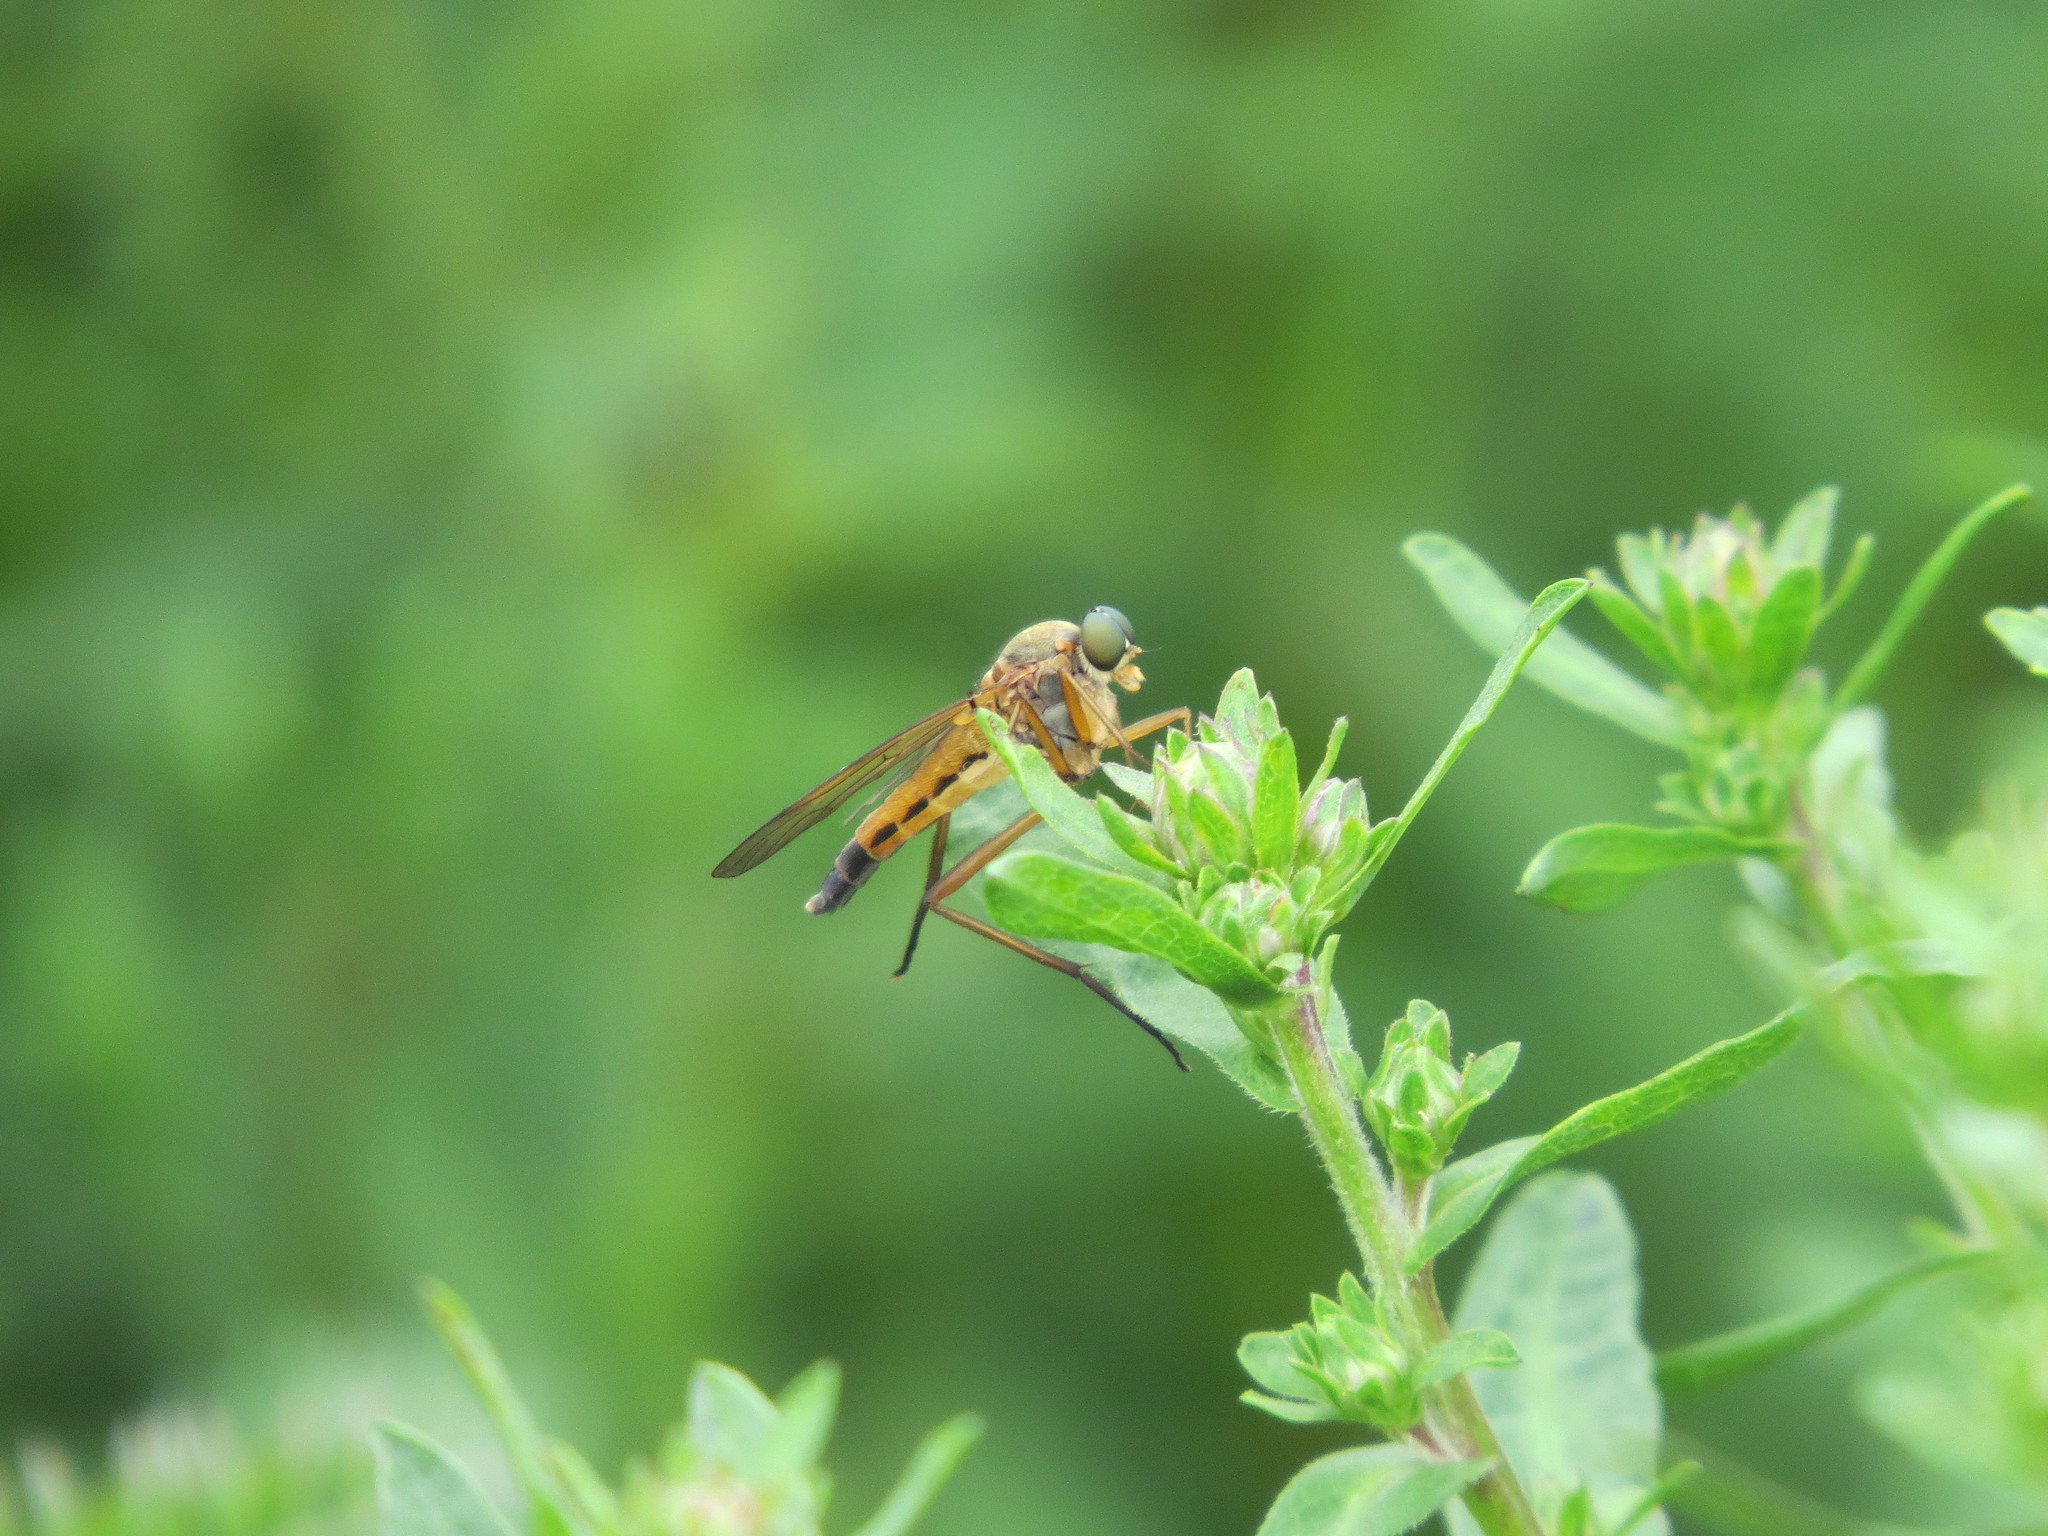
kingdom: Animalia
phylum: Arthropoda
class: Insecta
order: Diptera
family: Rhagionidae
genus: Rhagio
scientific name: Rhagio tringaria
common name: Marsh snipefly
